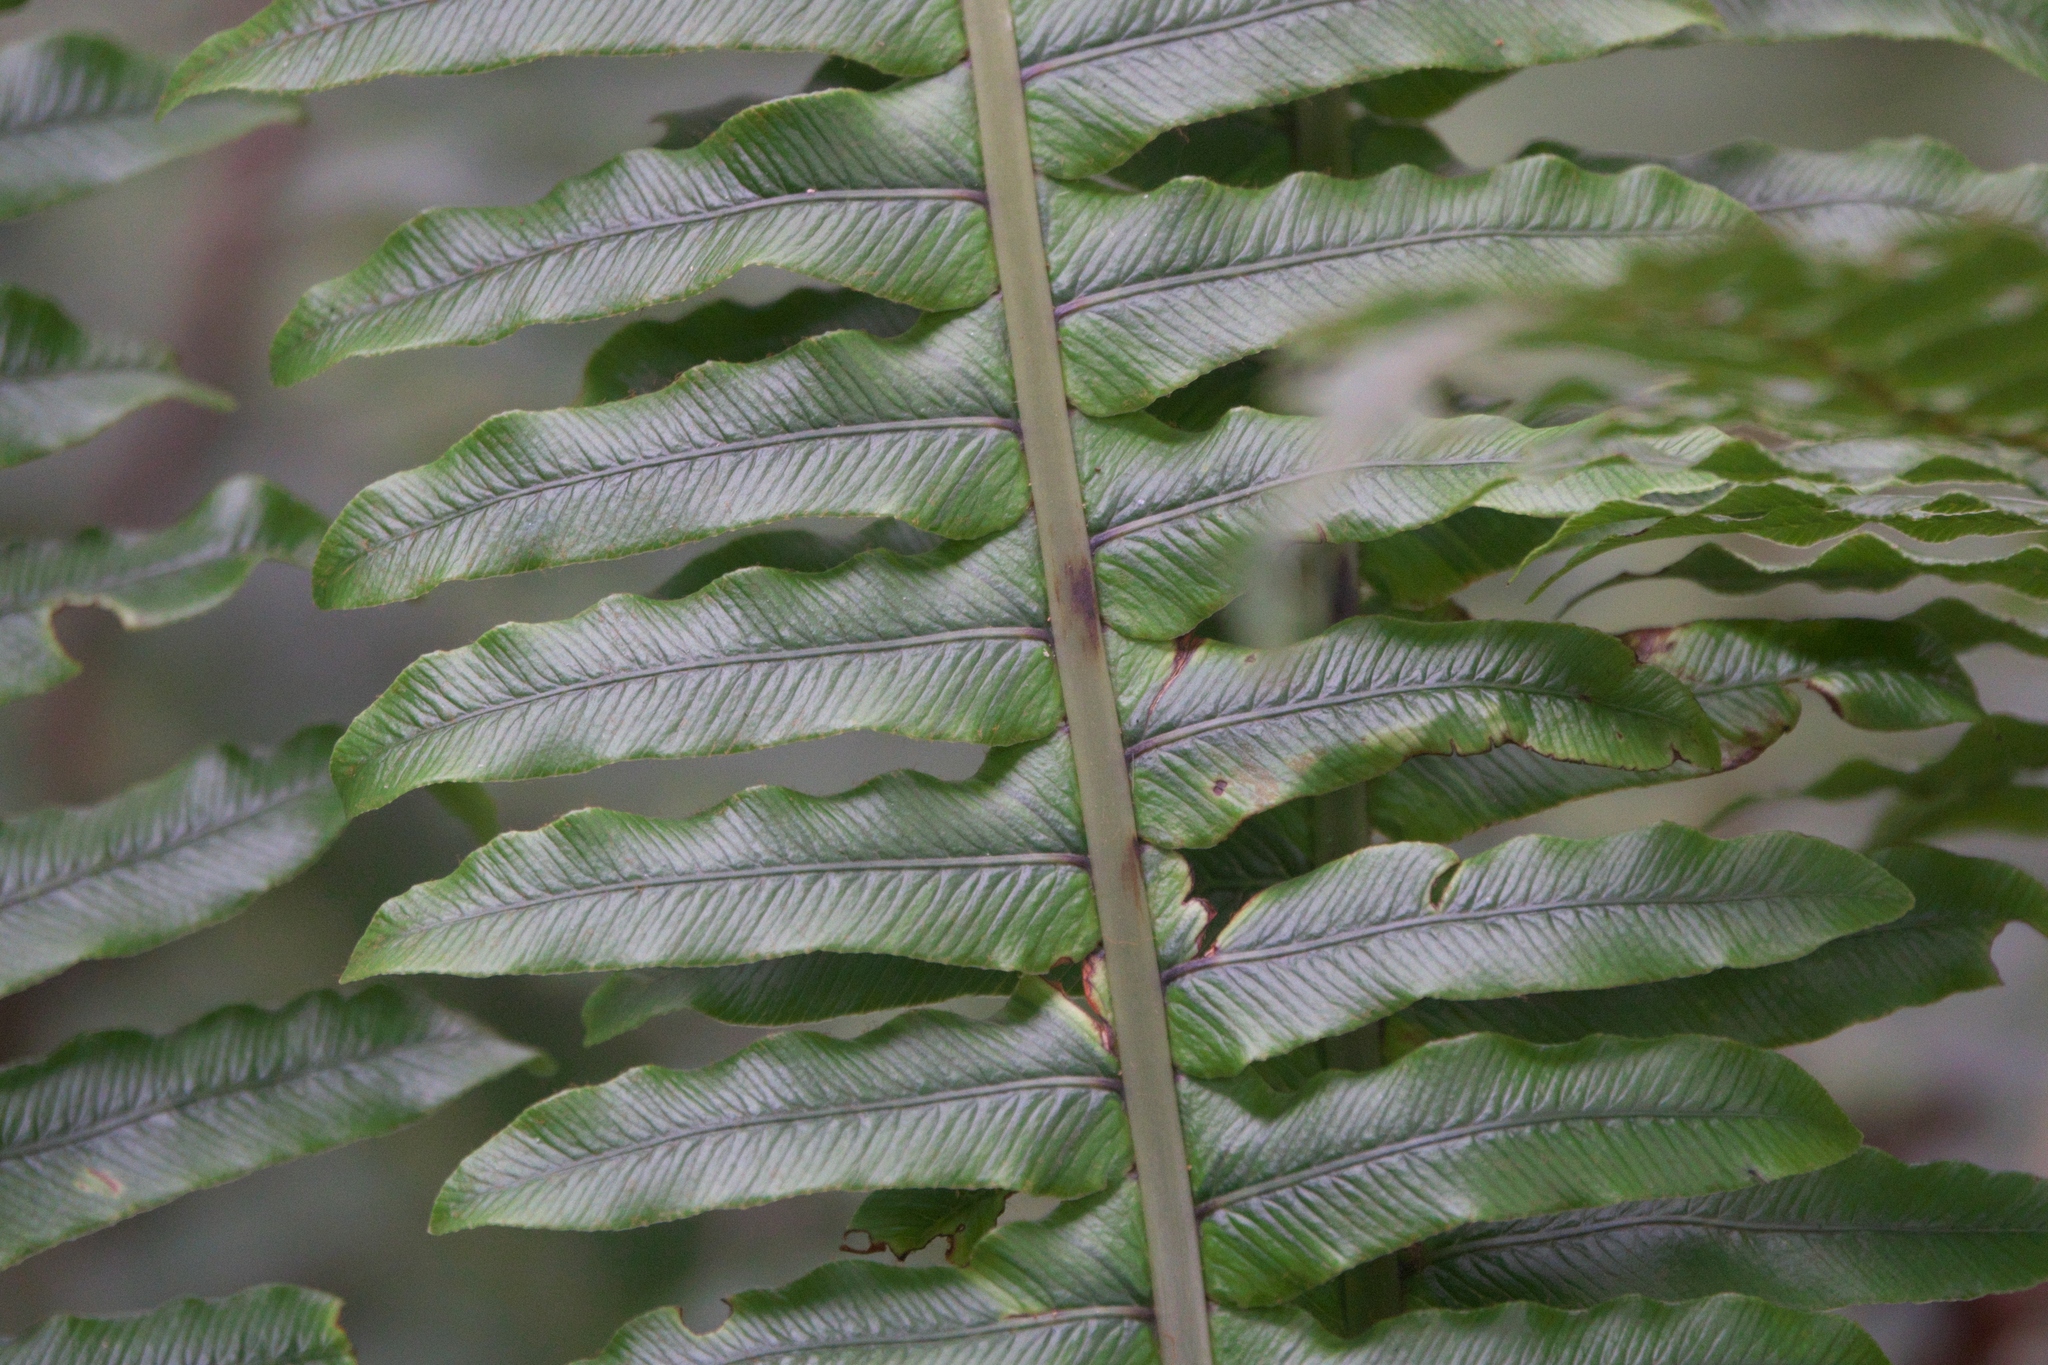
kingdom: Plantae
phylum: Tracheophyta
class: Polypodiopsida
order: Polypodiales
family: Blechnaceae
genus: Lomaria
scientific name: Lomaria discolor
